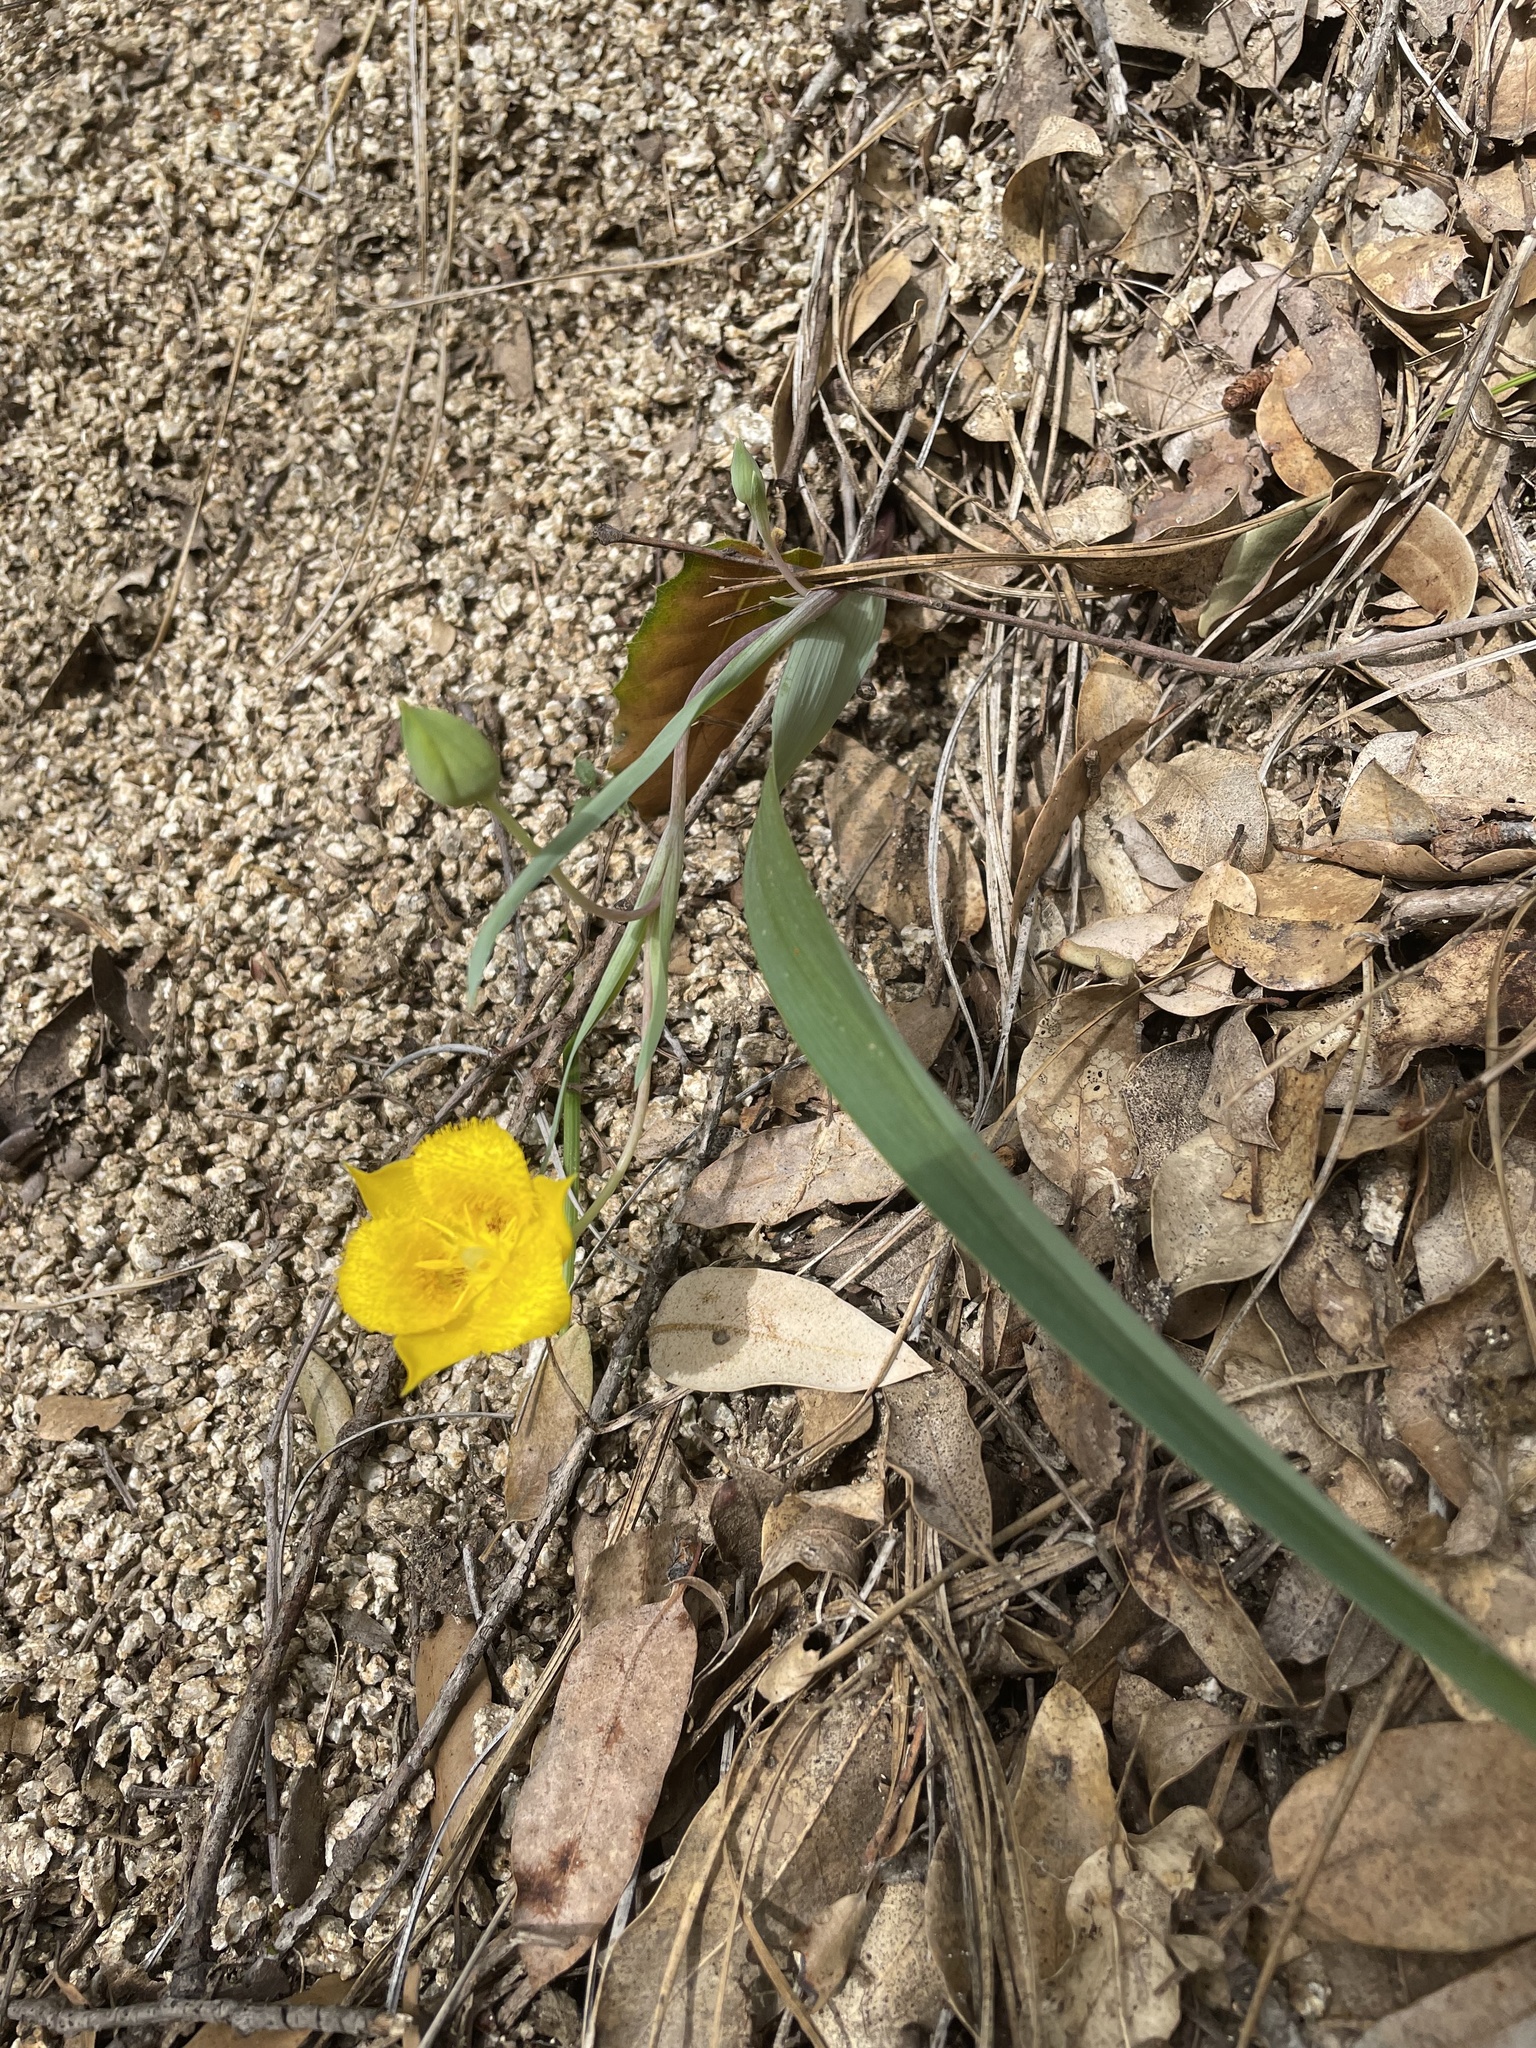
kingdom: Plantae
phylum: Tracheophyta
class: Liliopsida
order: Liliales
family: Liliaceae
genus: Calochortus
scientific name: Calochortus monophyllus
